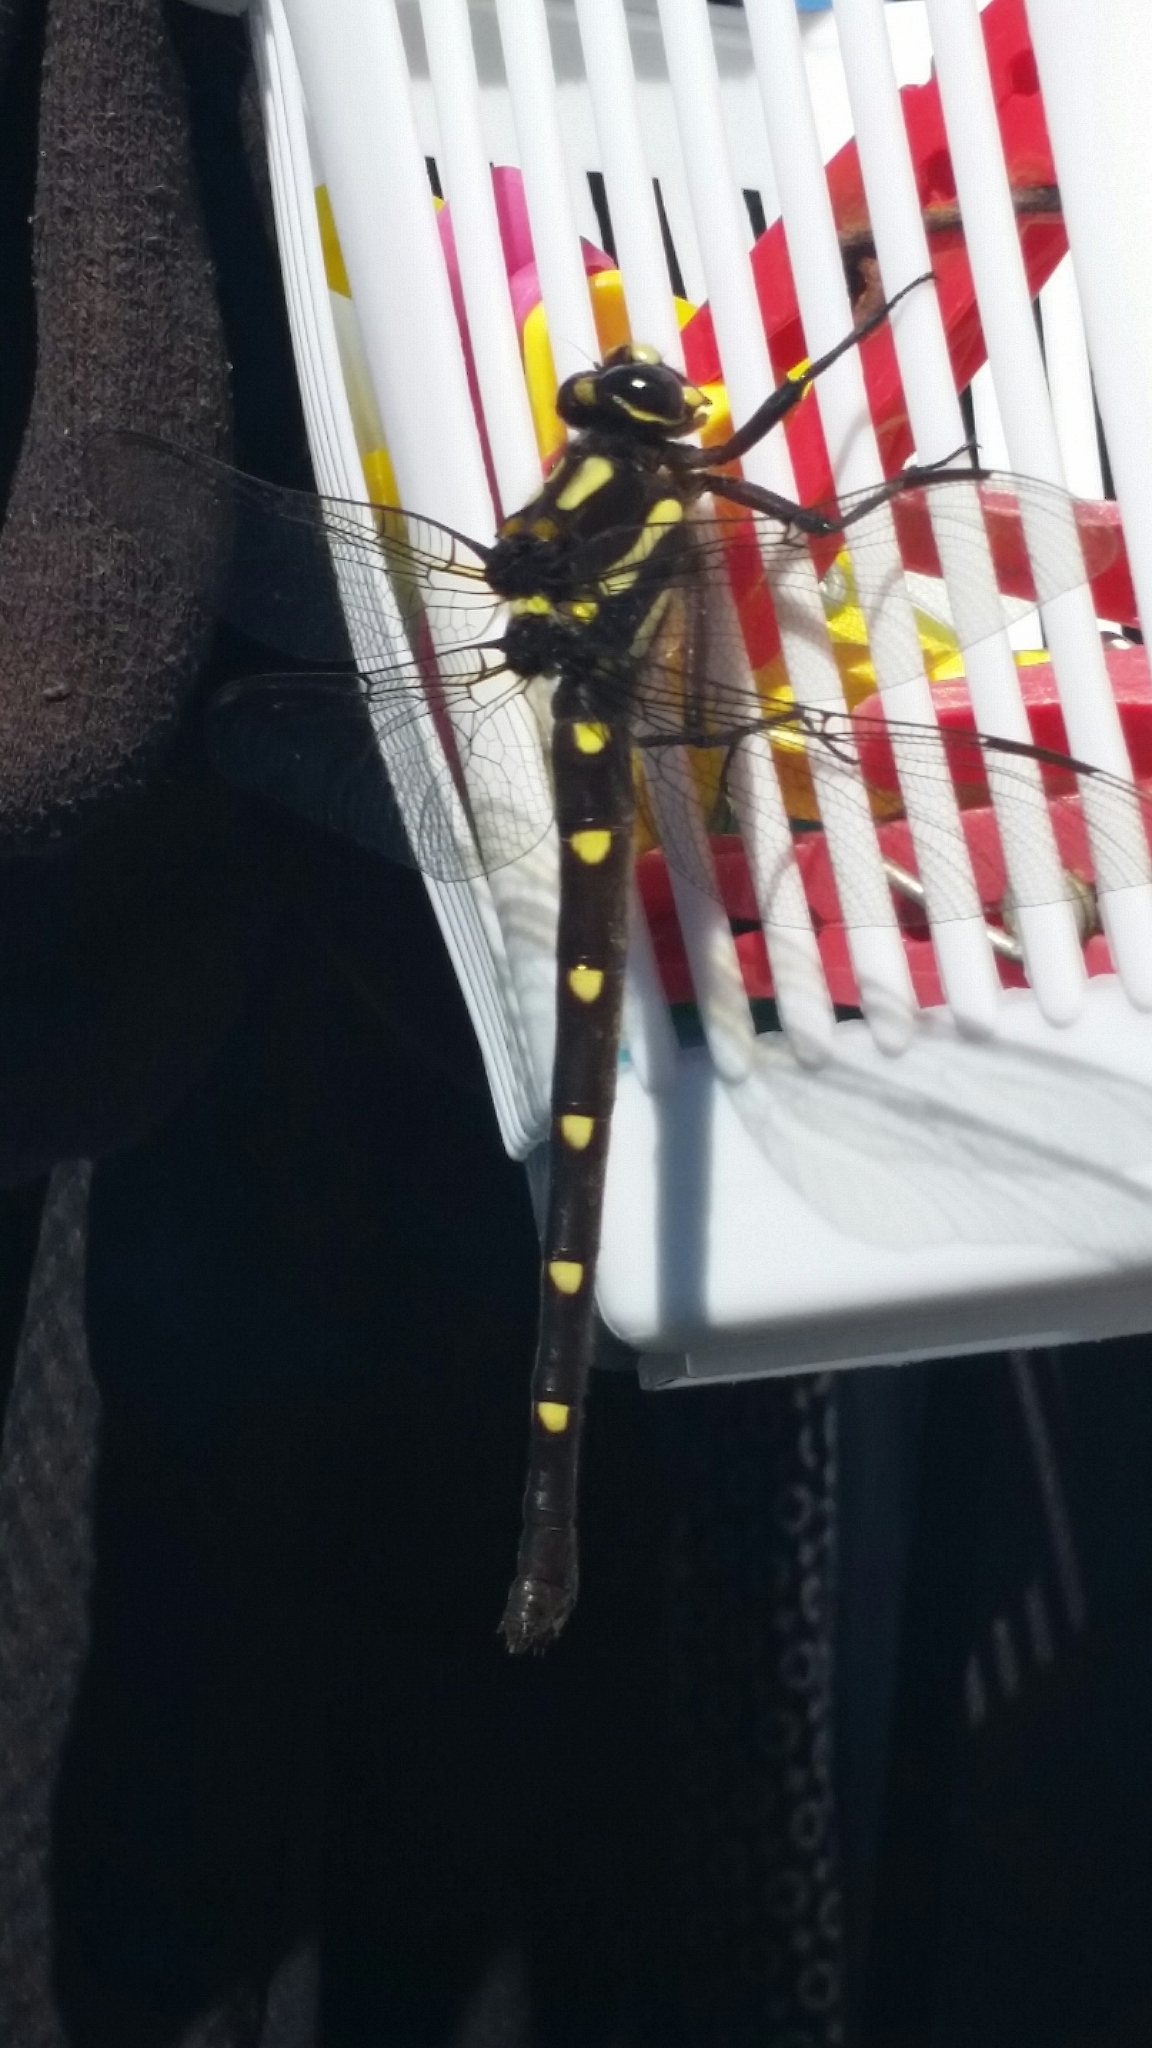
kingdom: Animalia
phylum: Arthropoda
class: Insecta
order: Odonata
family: Petaluridae
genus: Uropetala
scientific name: Uropetala carovei
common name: Bush giant dragonfly
